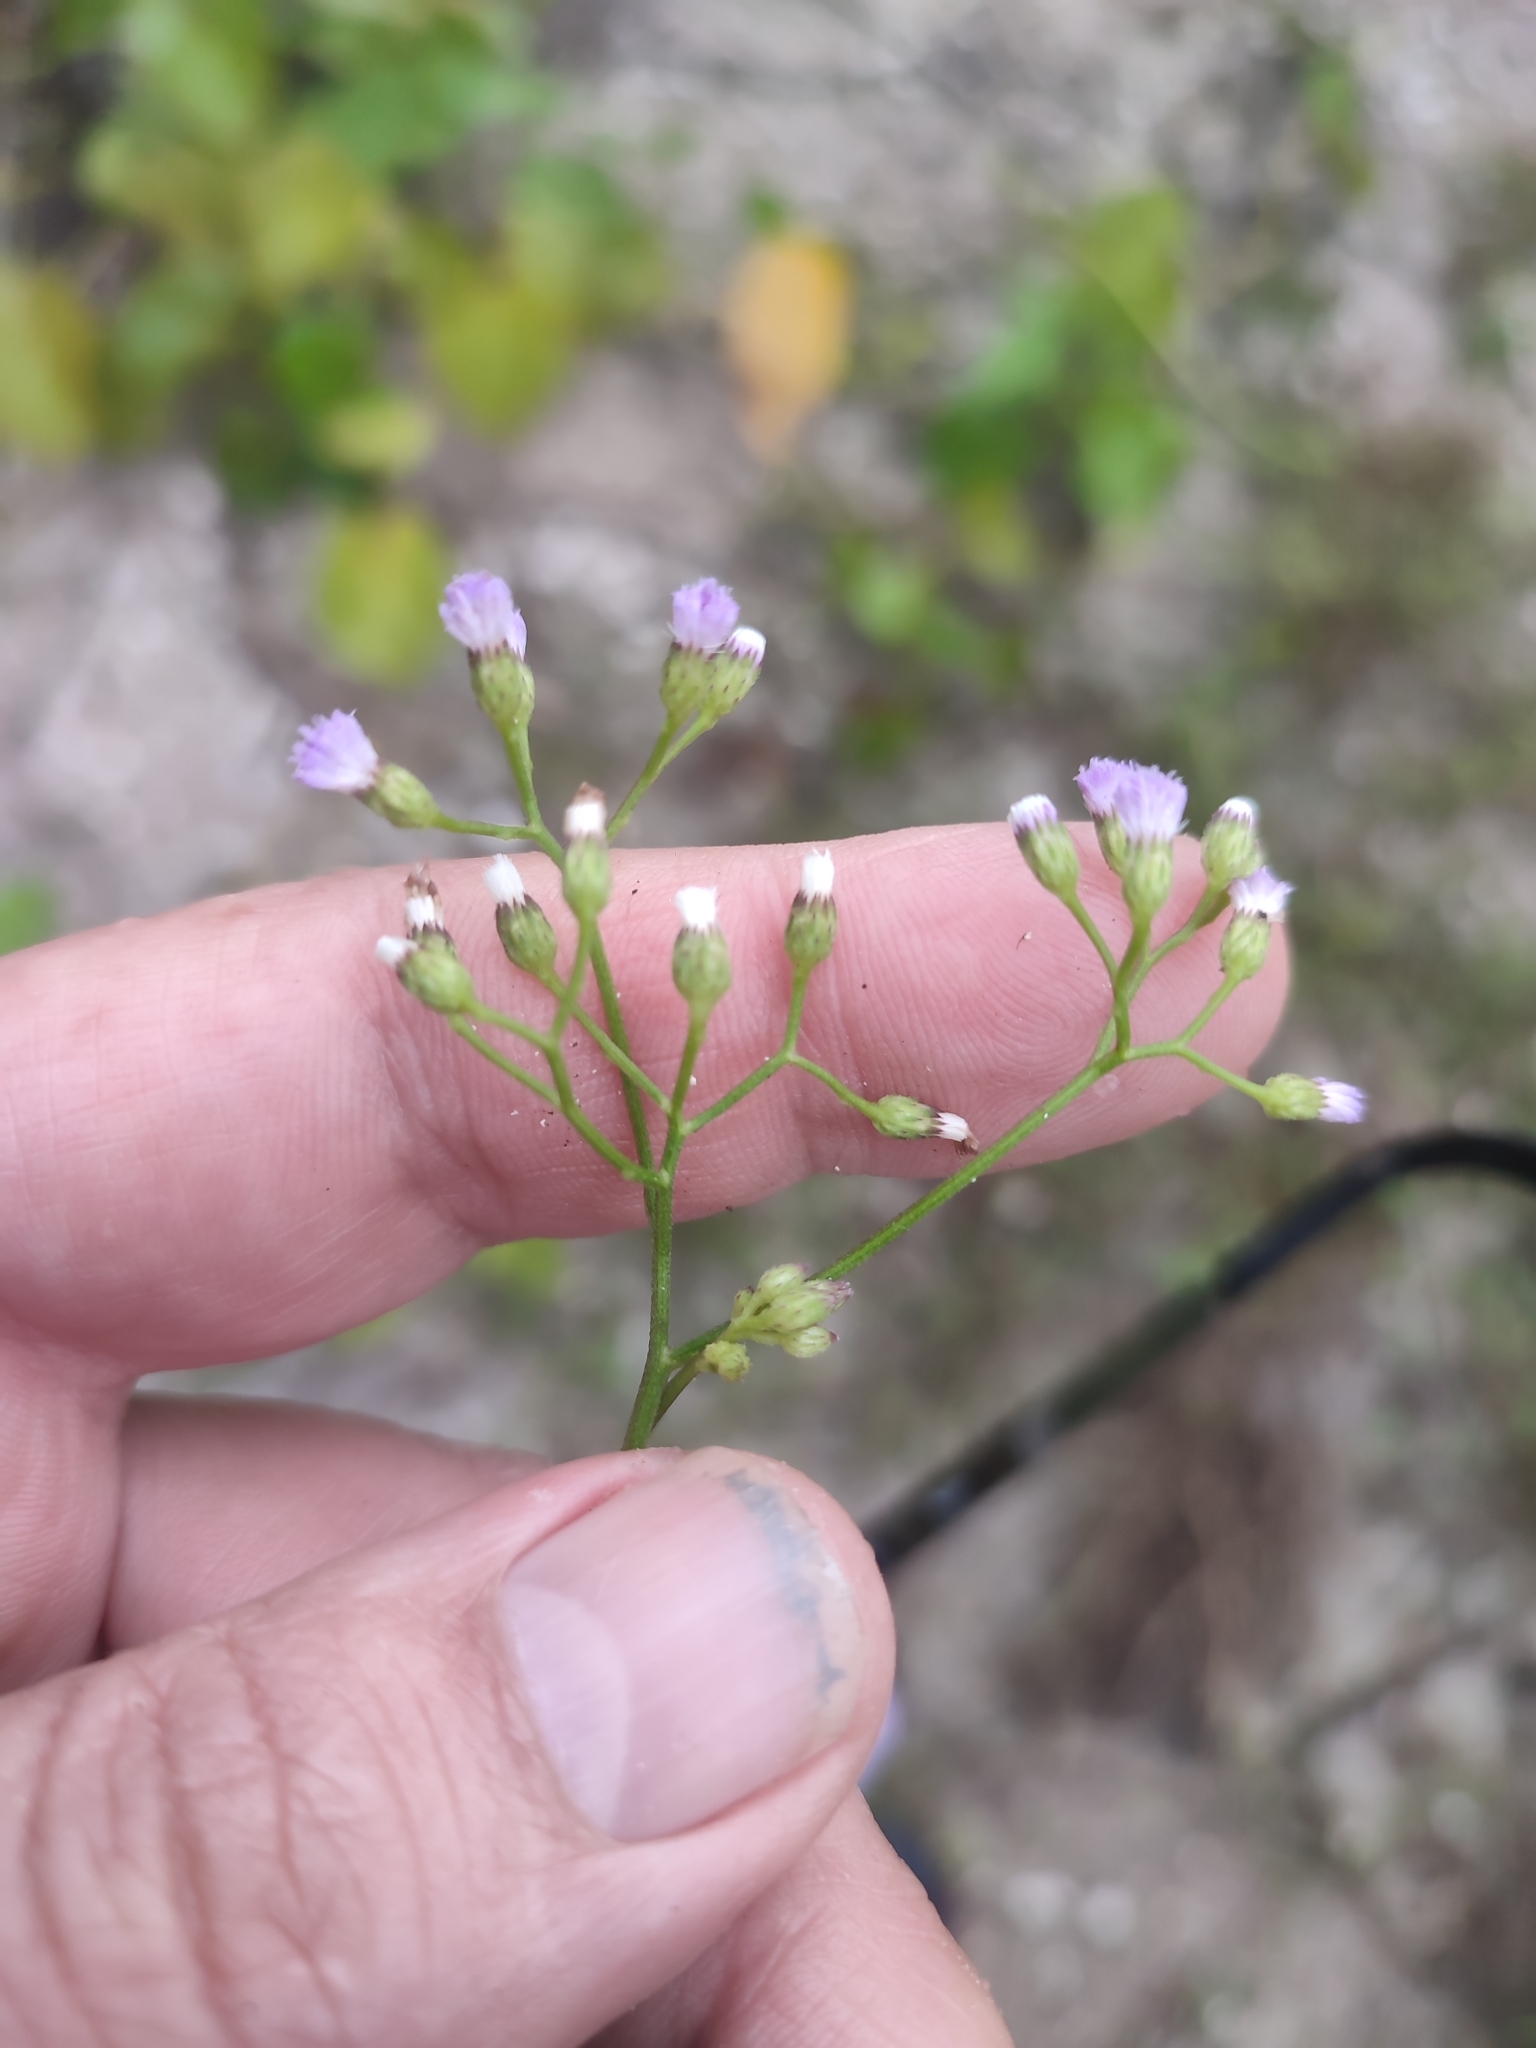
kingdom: Plantae
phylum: Tracheophyta
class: Magnoliopsida
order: Asterales
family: Asteraceae
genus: Cyanthillium
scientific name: Cyanthillium cinereum
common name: Little ironweed
